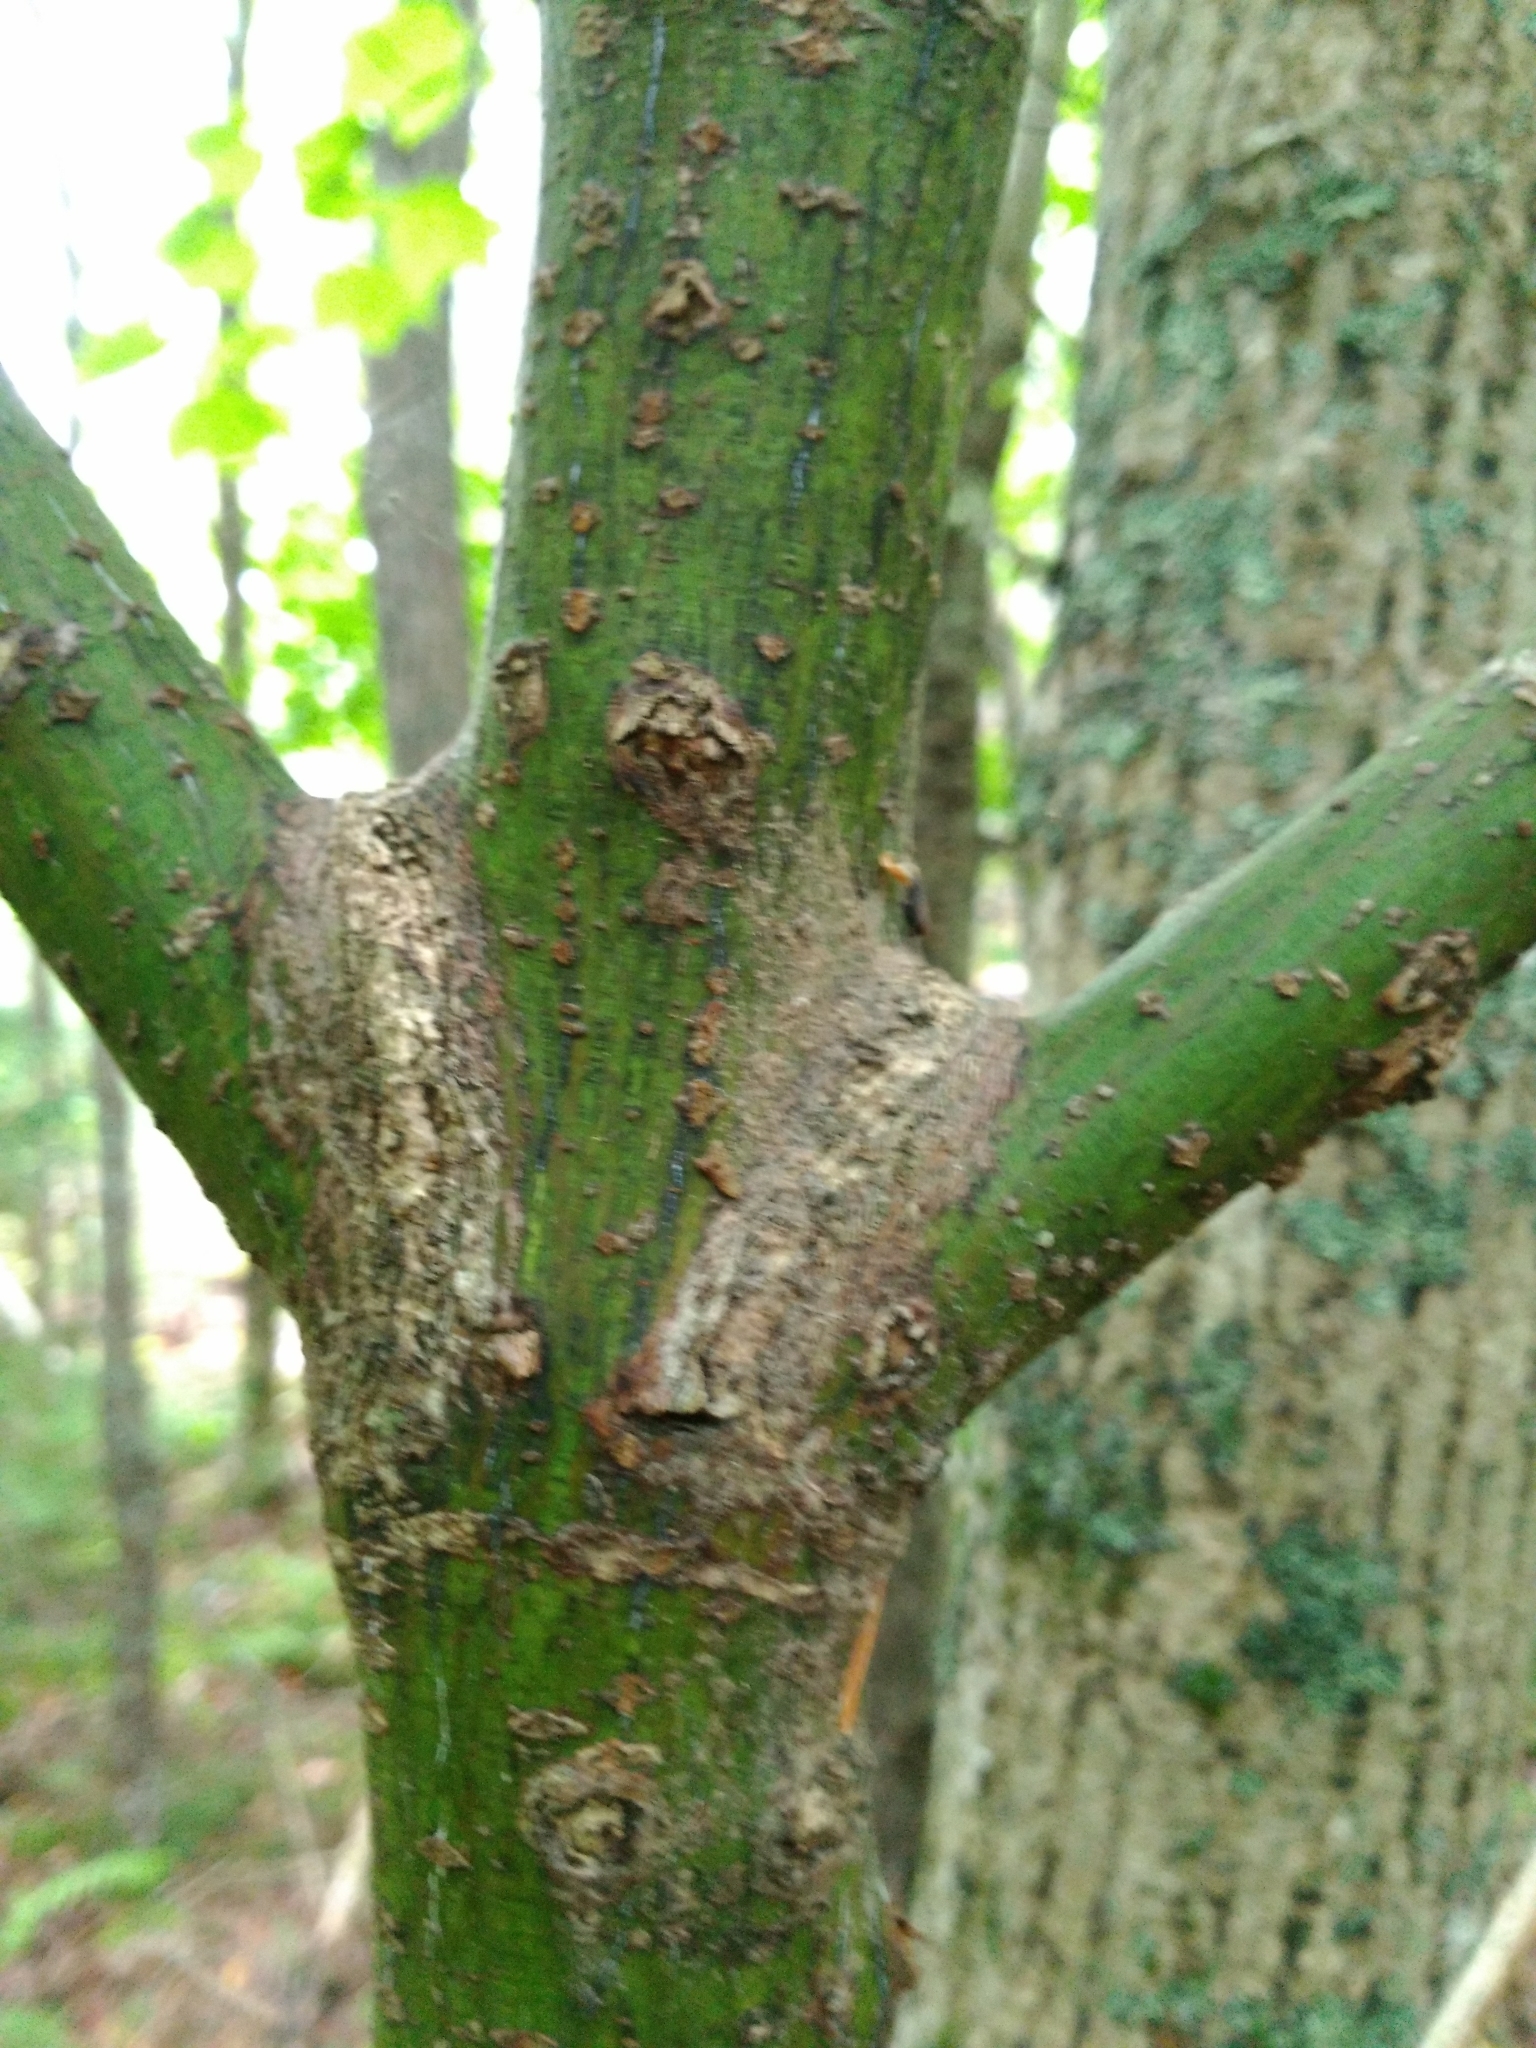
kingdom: Plantae
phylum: Tracheophyta
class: Magnoliopsida
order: Sapindales
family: Sapindaceae
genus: Acer
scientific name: Acer pensylvanicum
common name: Moosewood
